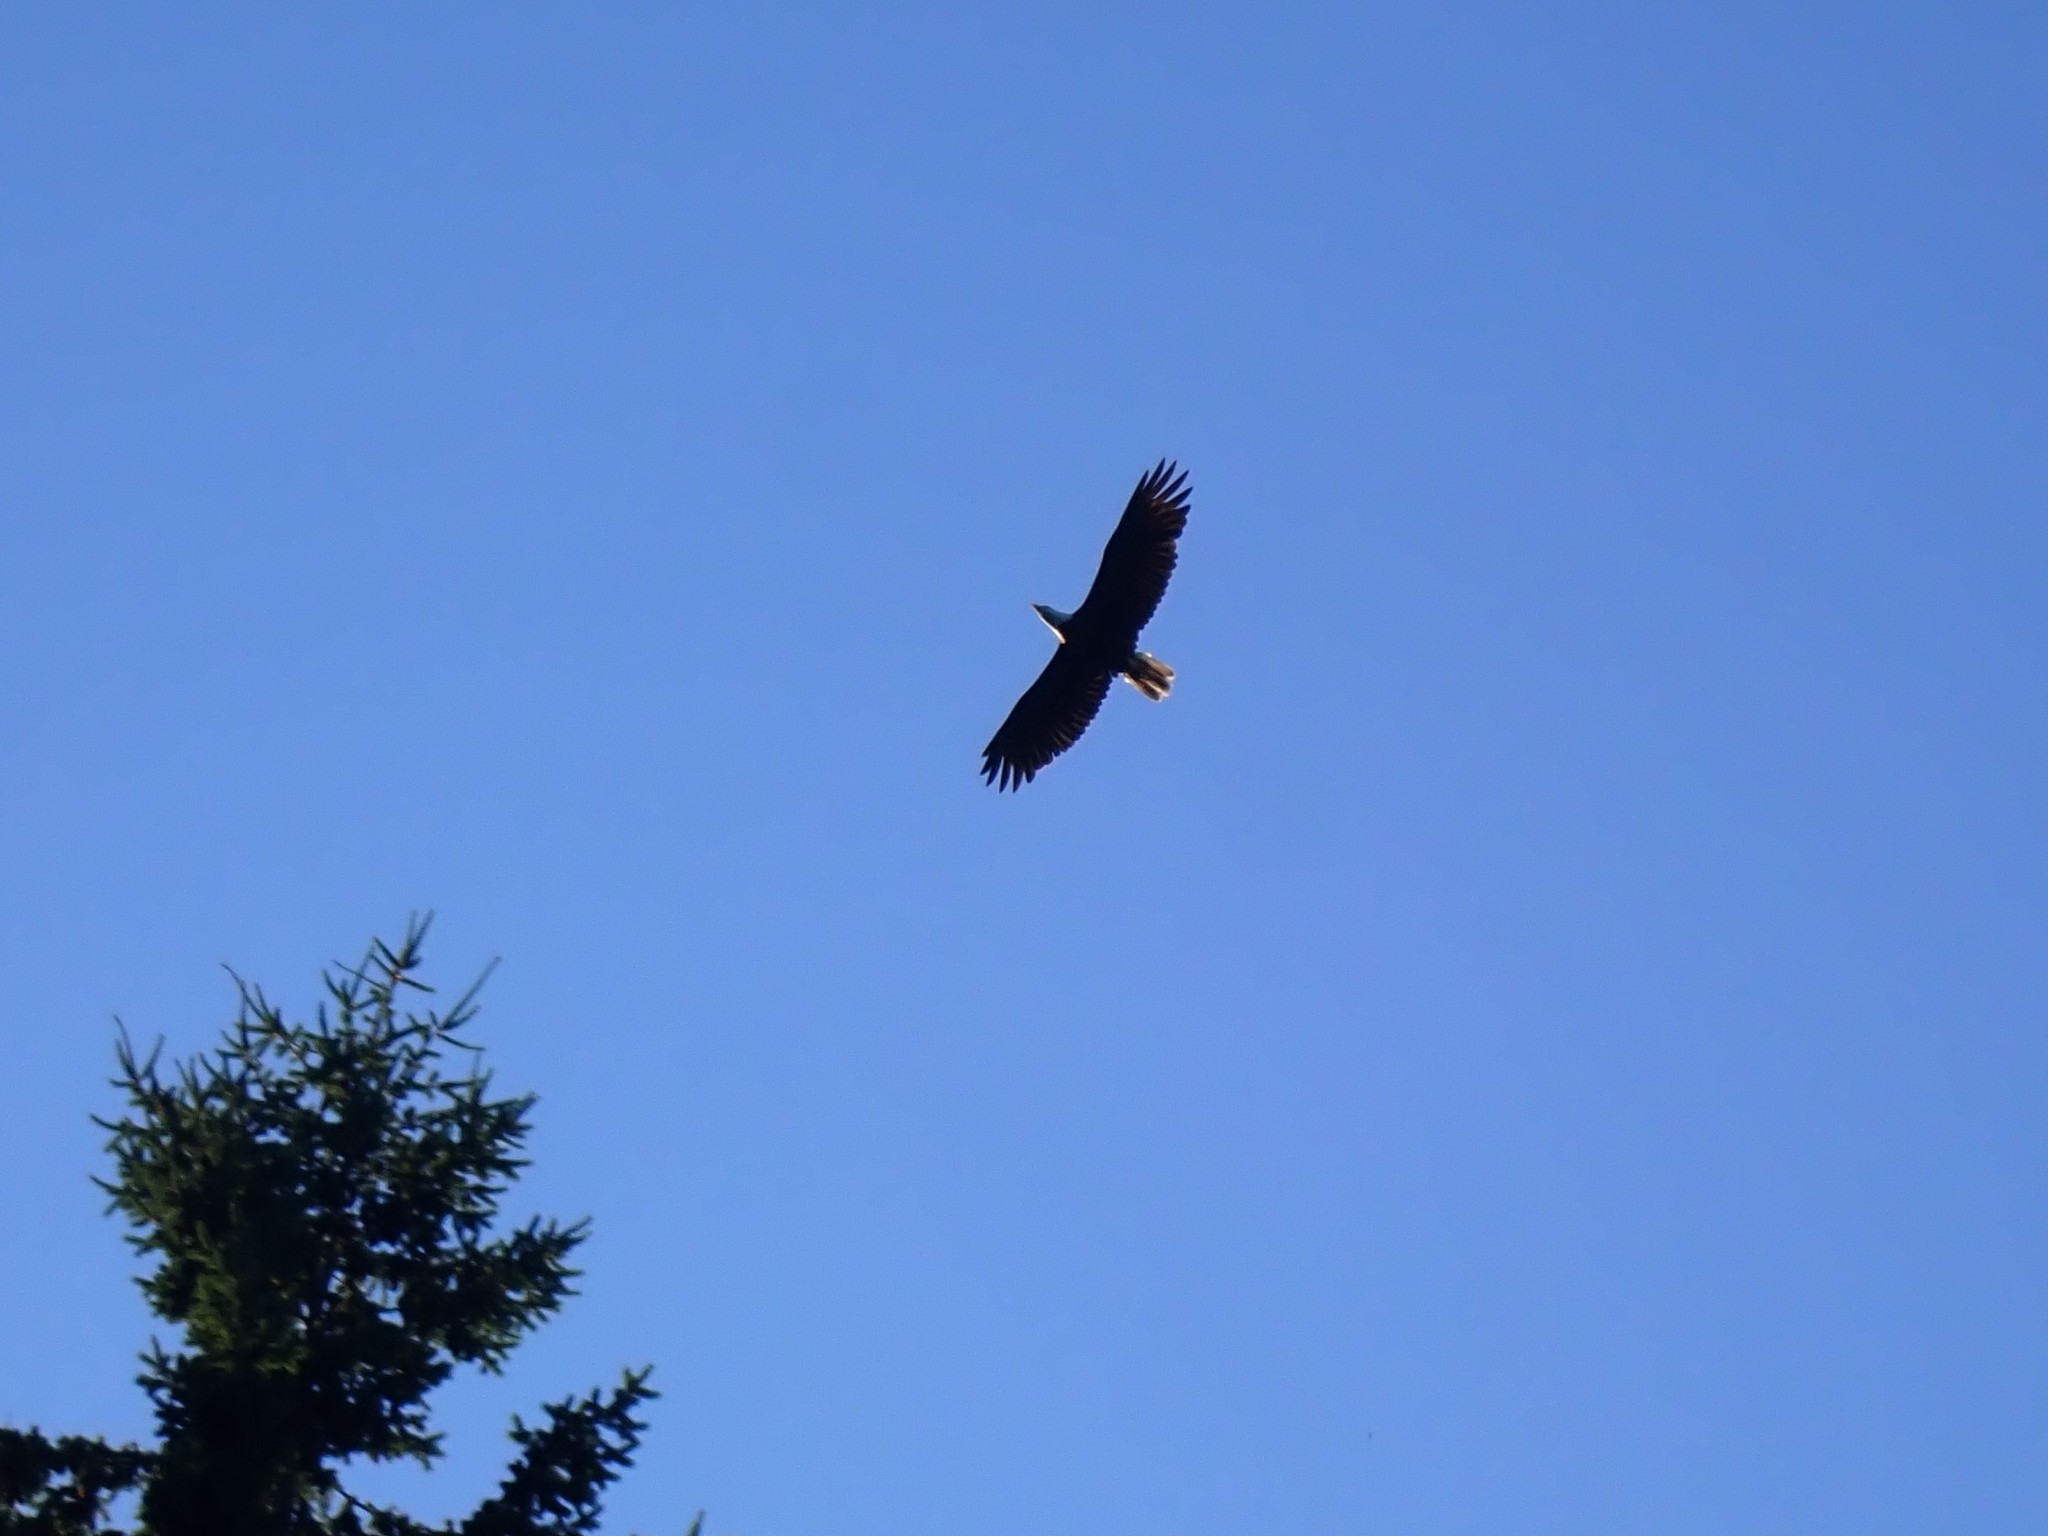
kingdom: Animalia
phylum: Chordata
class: Aves
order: Accipitriformes
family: Accipitridae
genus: Haliaeetus
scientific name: Haliaeetus leucocephalus
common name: Bald eagle
